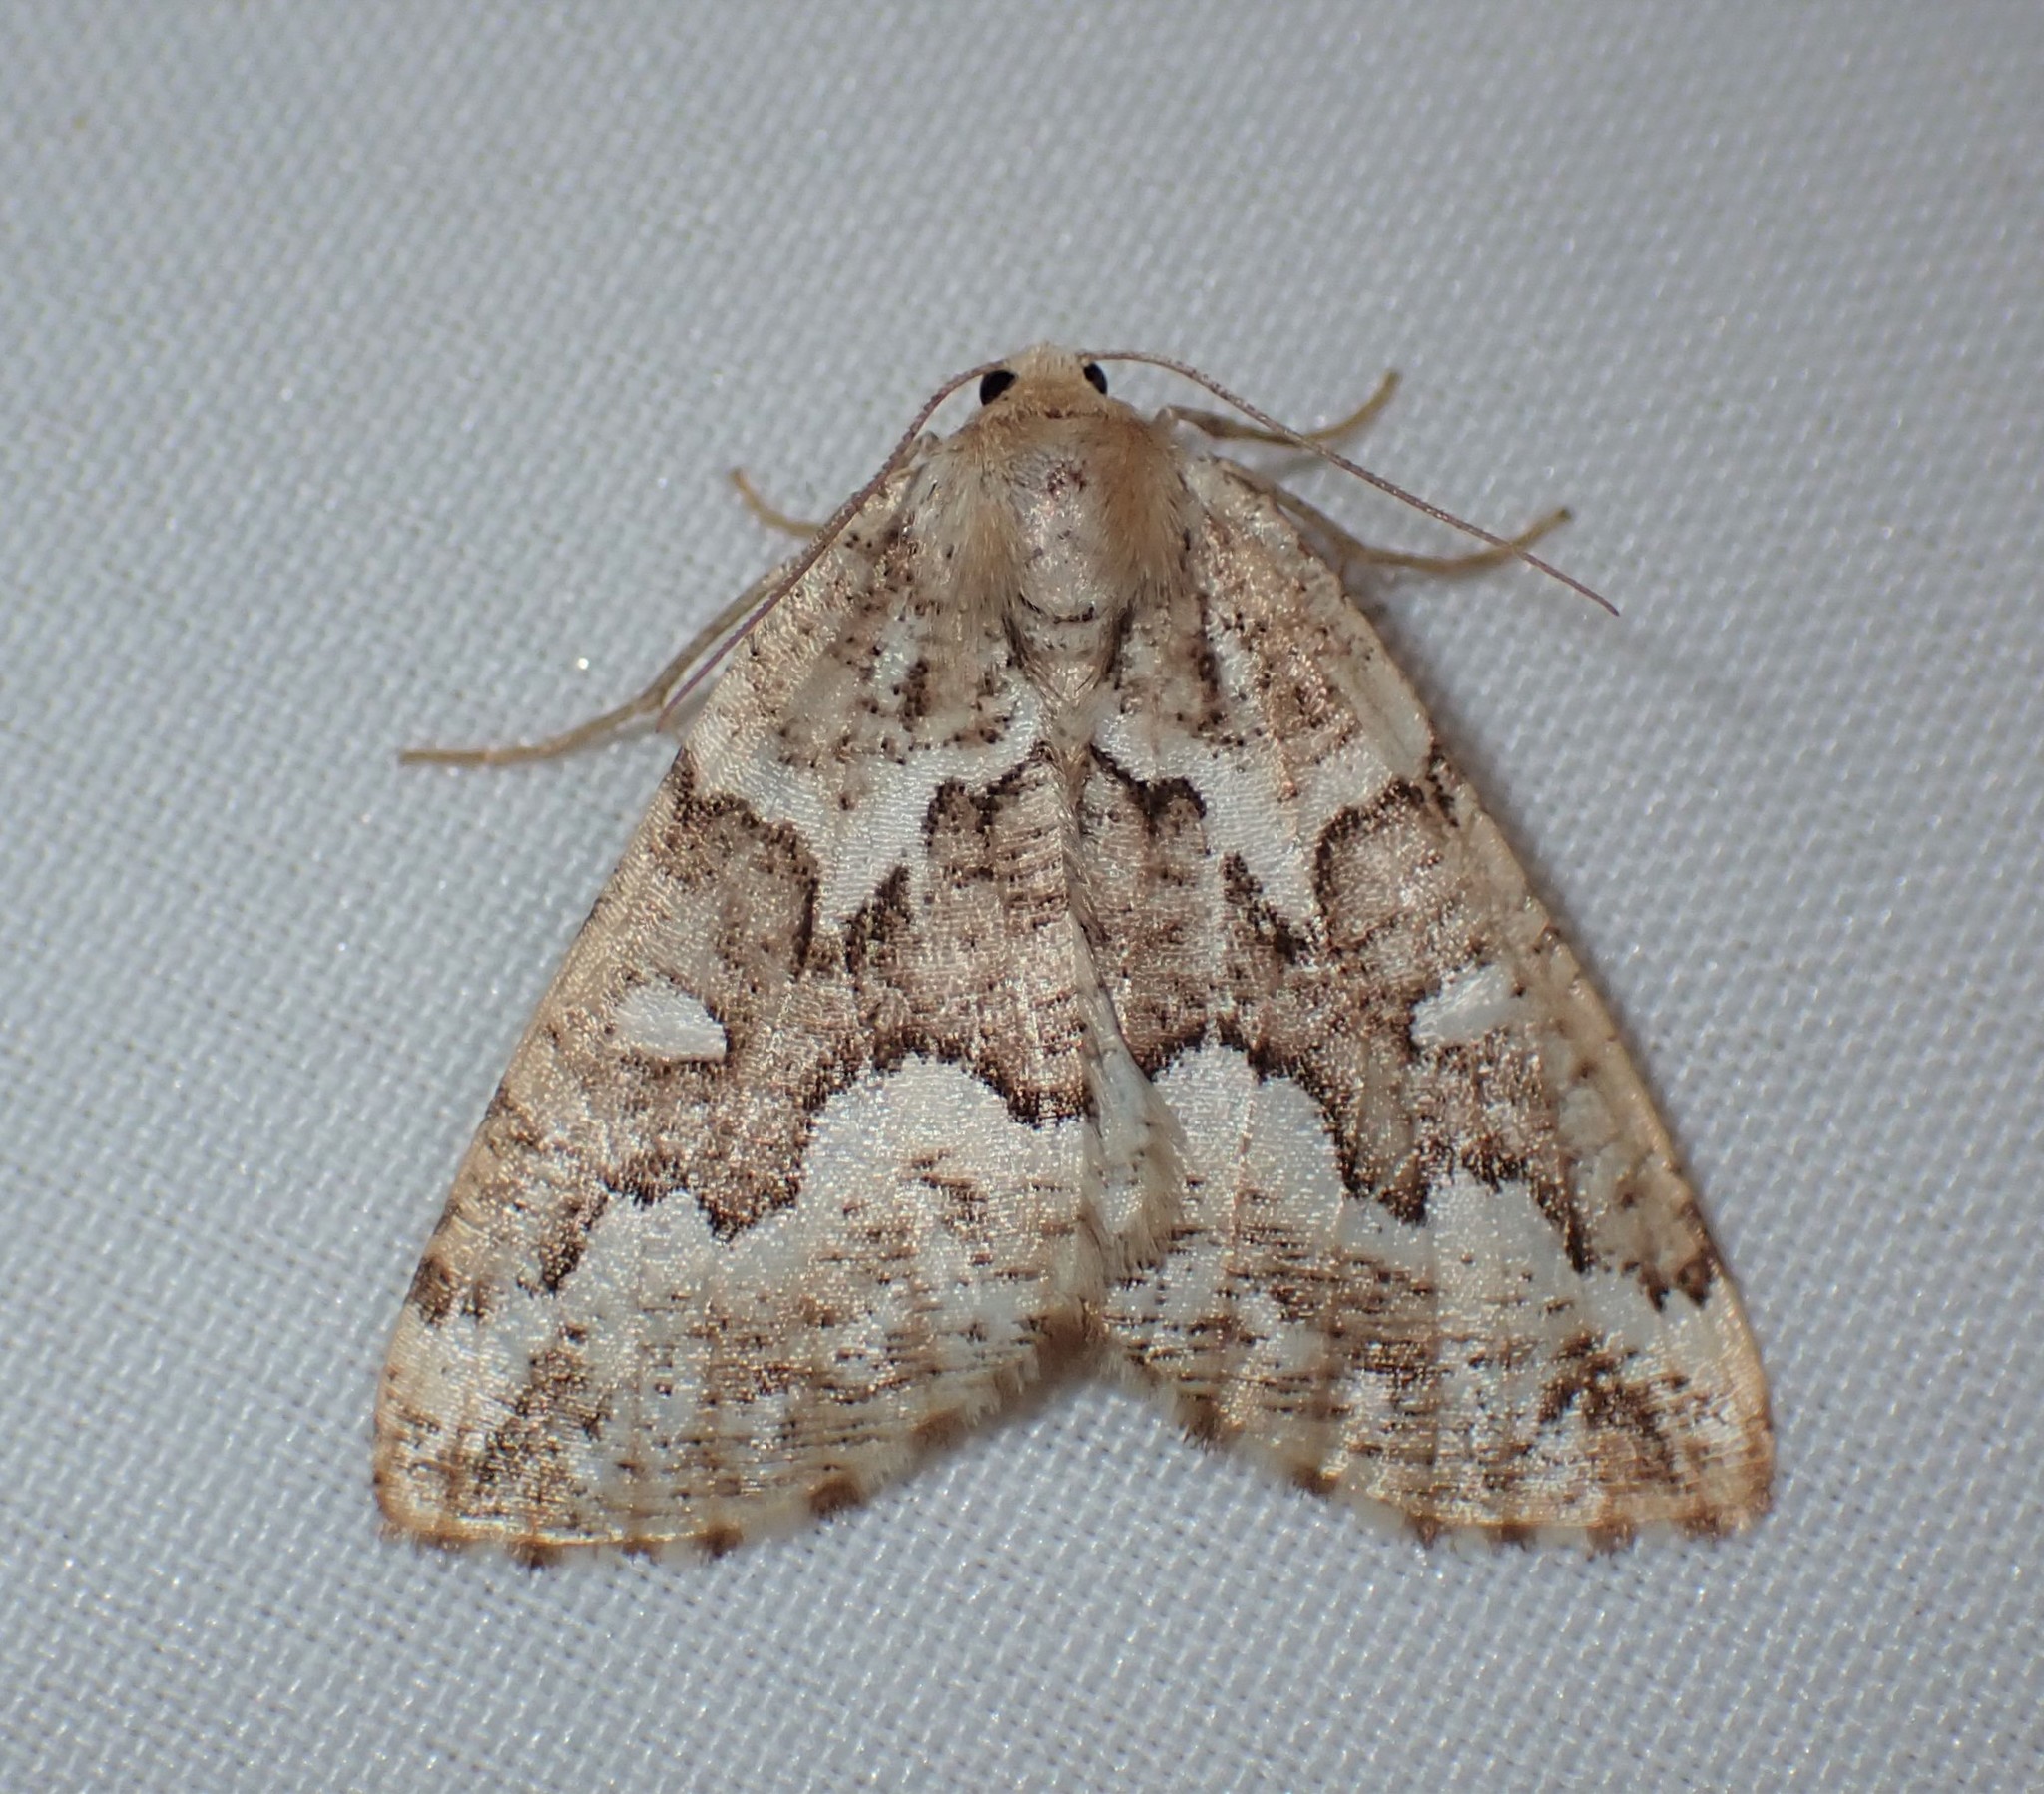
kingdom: Animalia
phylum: Arthropoda
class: Insecta
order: Lepidoptera
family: Geometridae
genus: Caripeta
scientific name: Caripeta divisata
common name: Gray spruce looper
